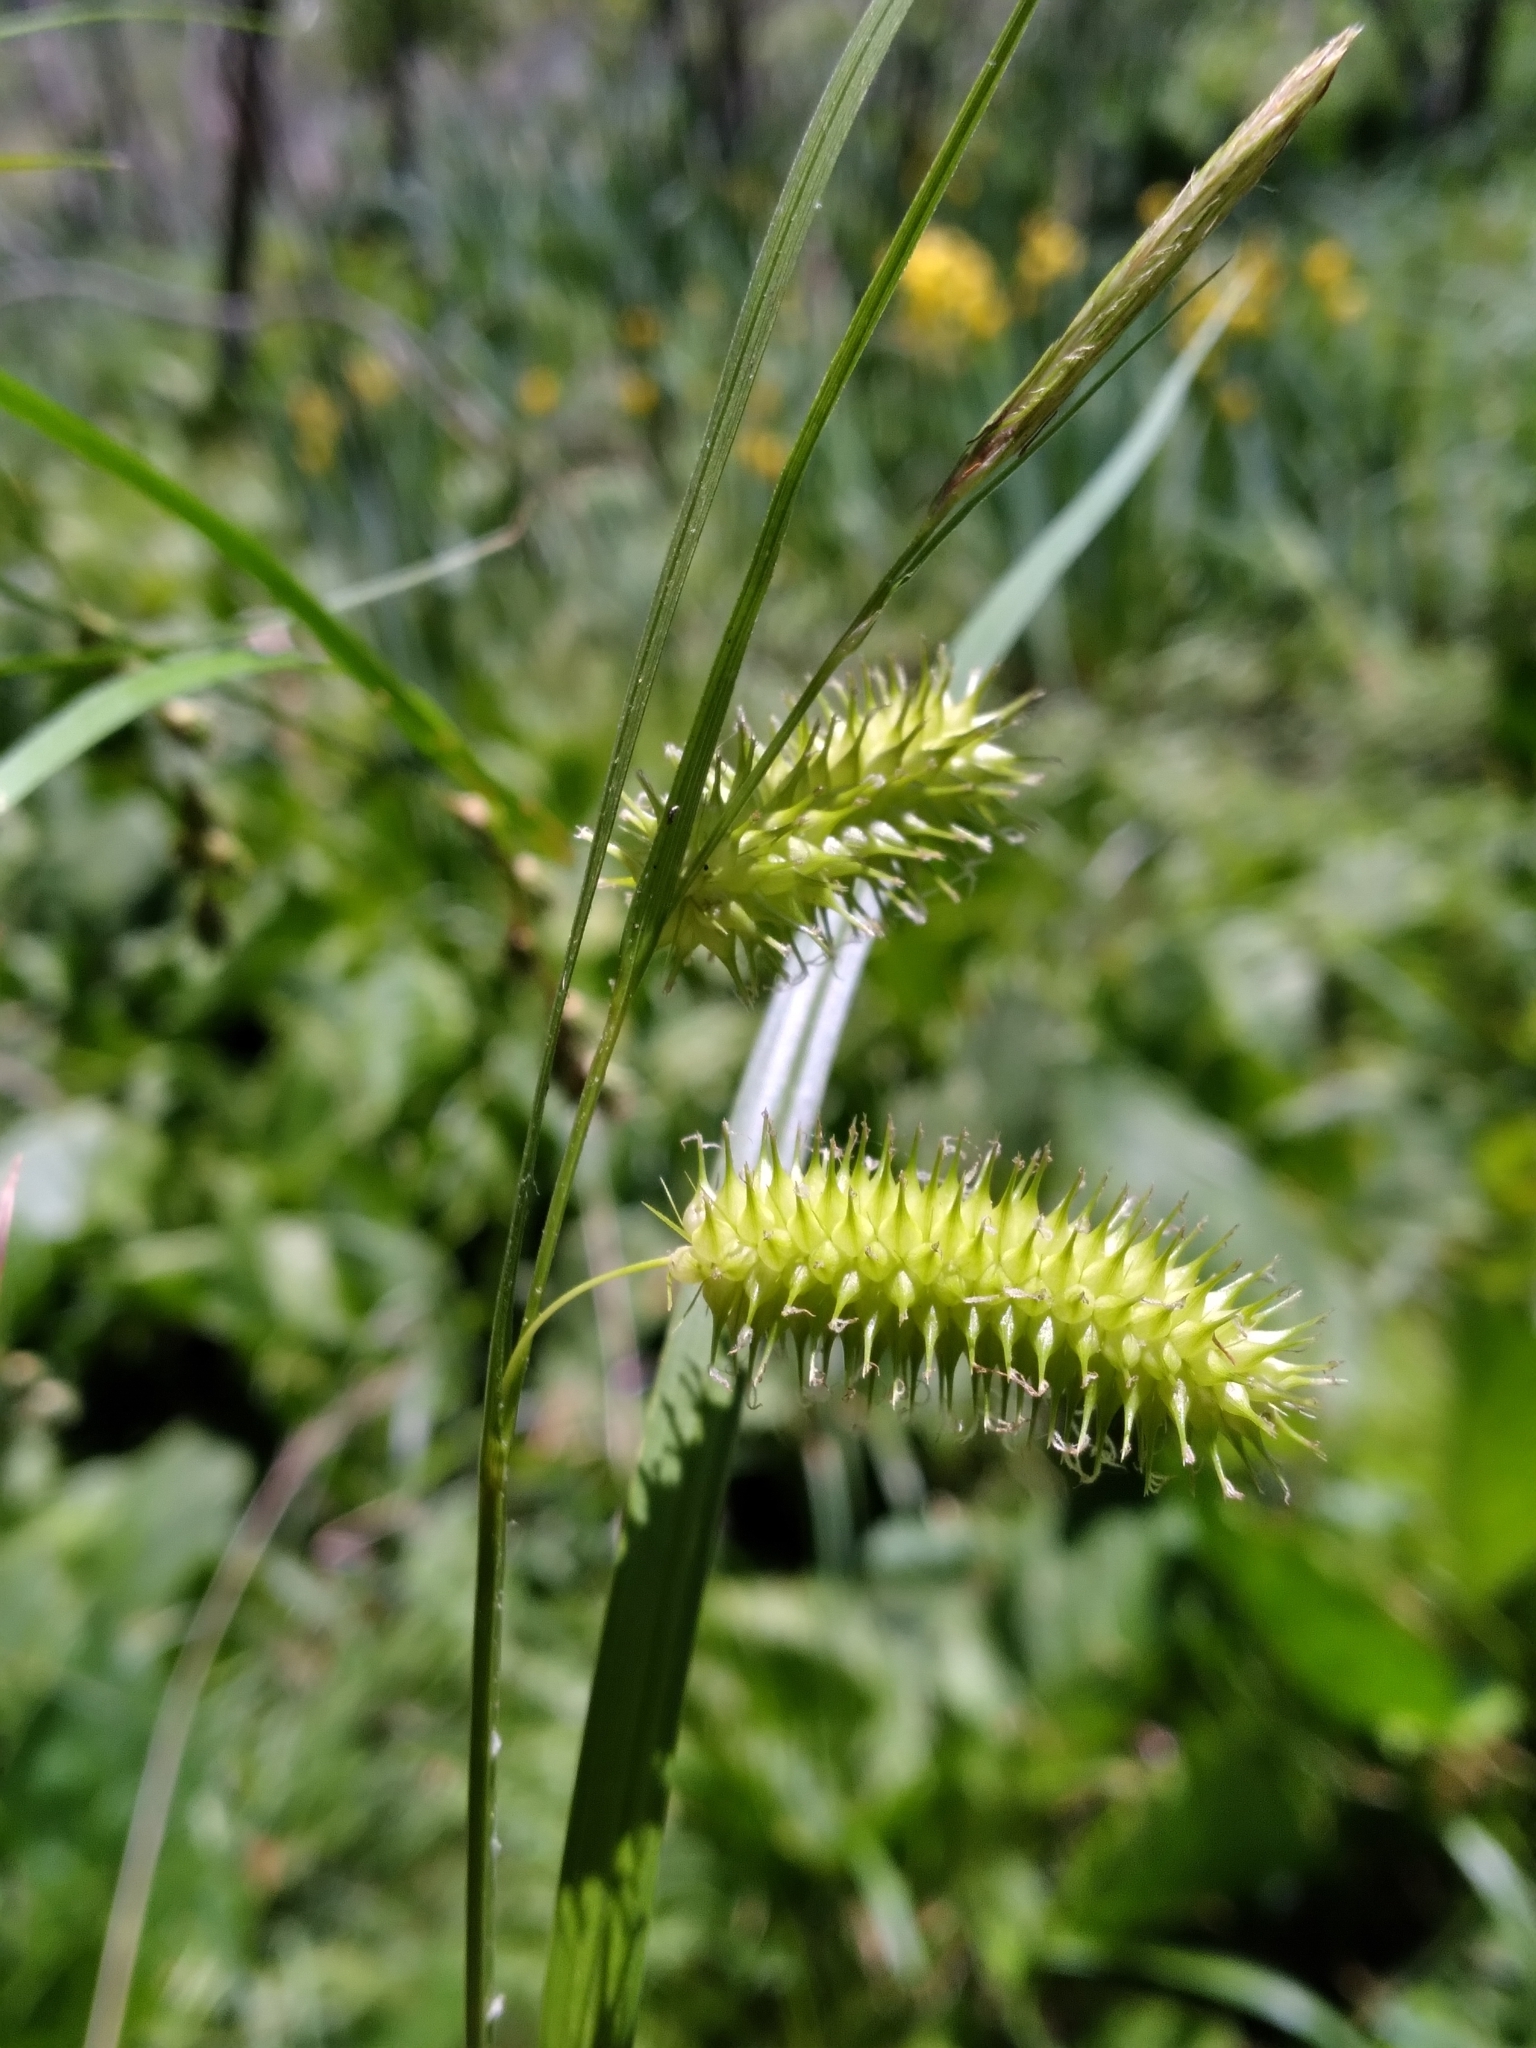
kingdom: Plantae
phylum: Tracheophyta
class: Liliopsida
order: Poales
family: Cyperaceae
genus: Carex
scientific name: Carex hystericina
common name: Bottlebrush sedge
